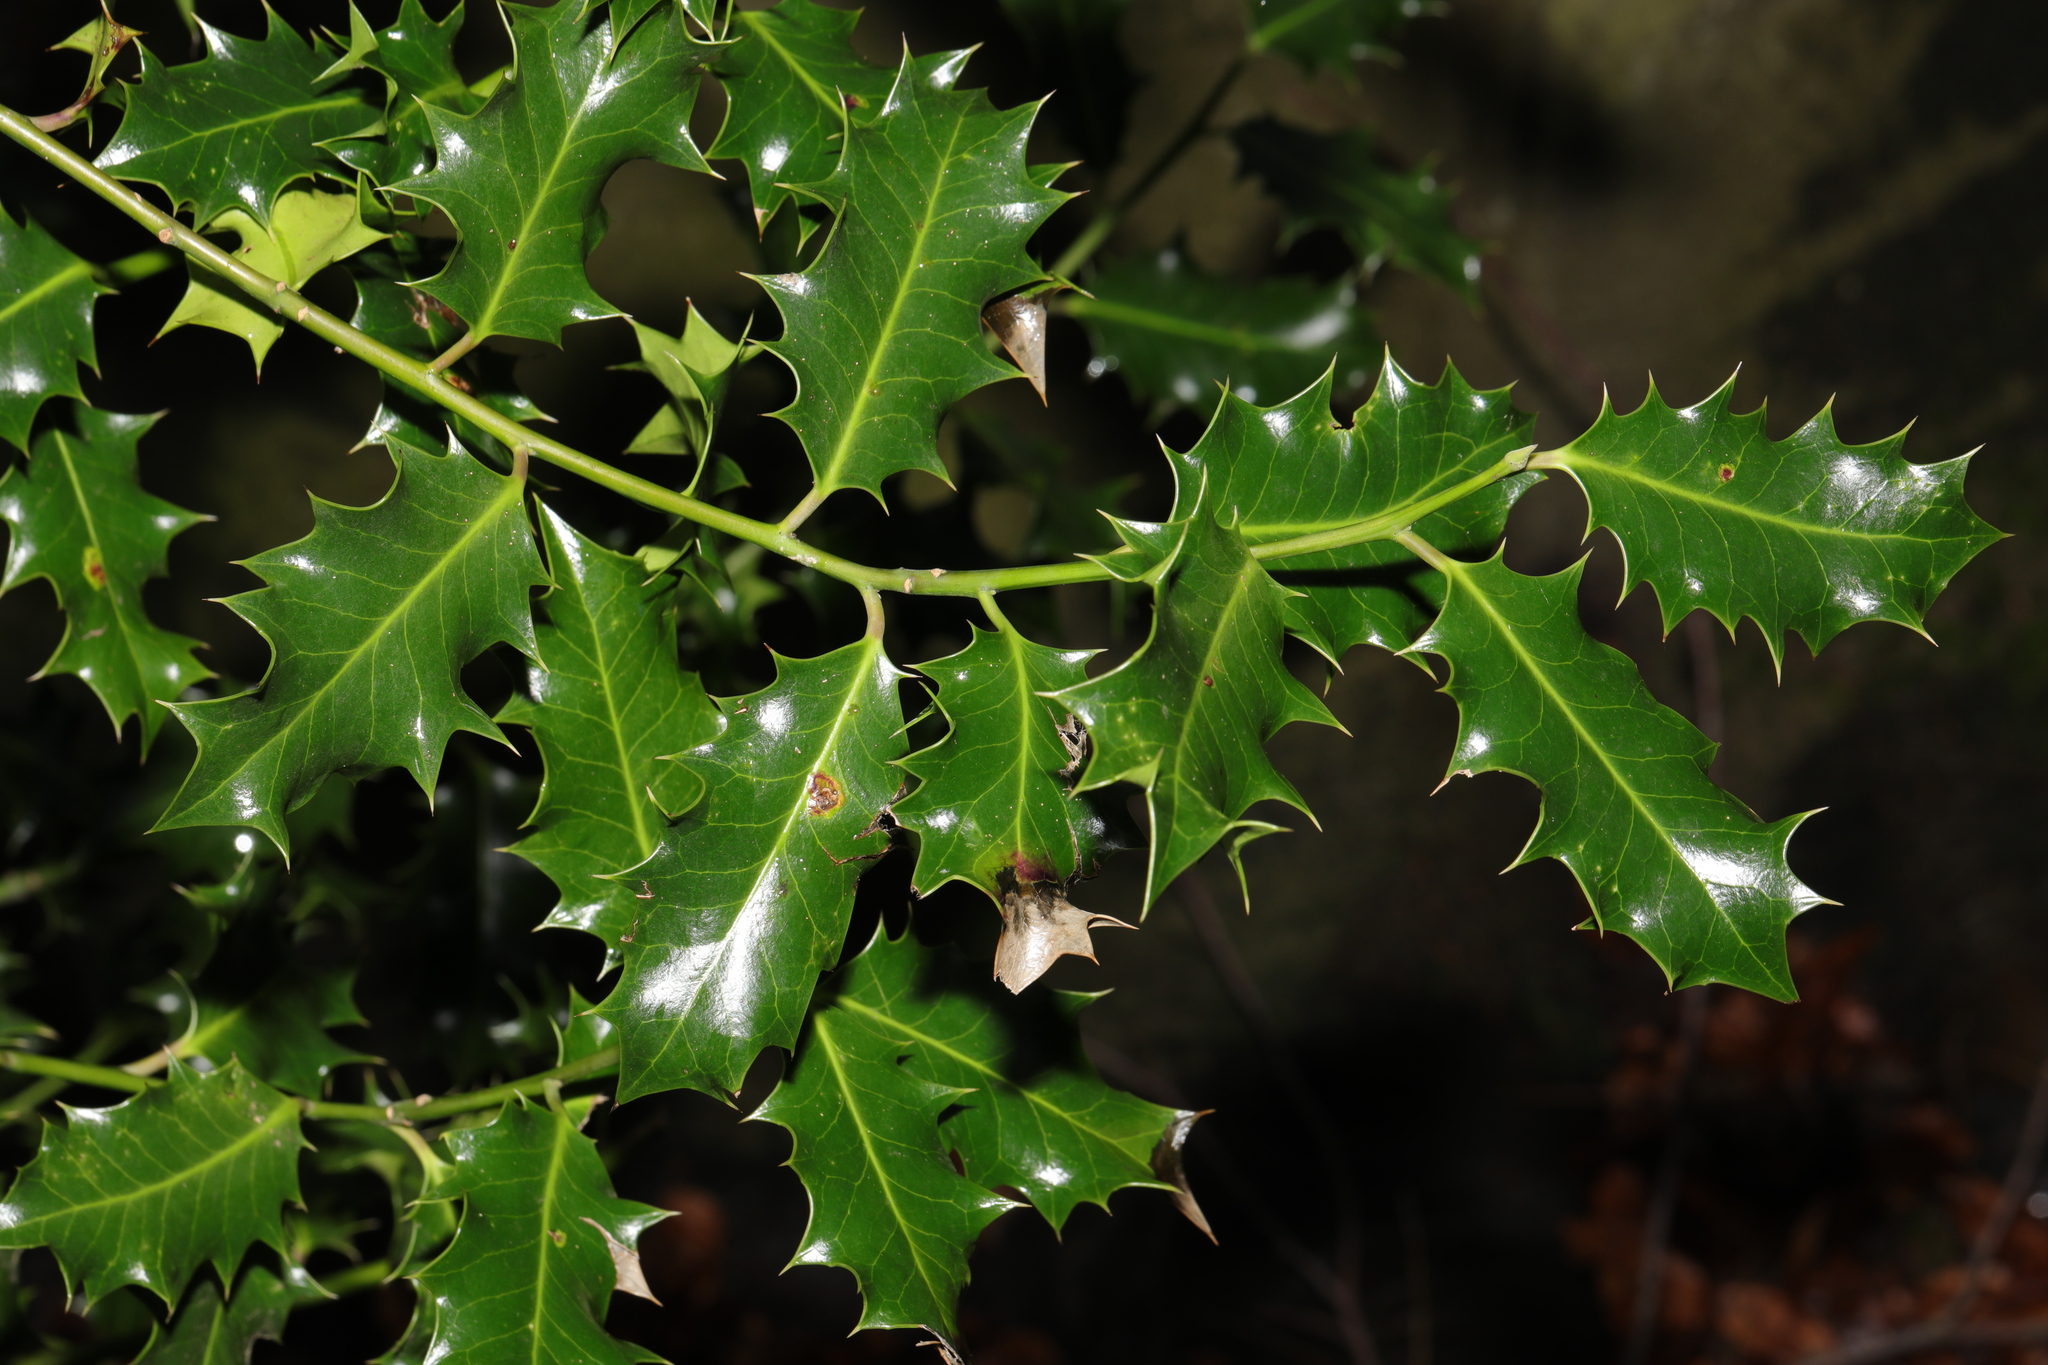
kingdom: Plantae
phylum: Tracheophyta
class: Magnoliopsida
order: Aquifoliales
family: Aquifoliaceae
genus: Ilex
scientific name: Ilex aquifolium
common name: English holly
